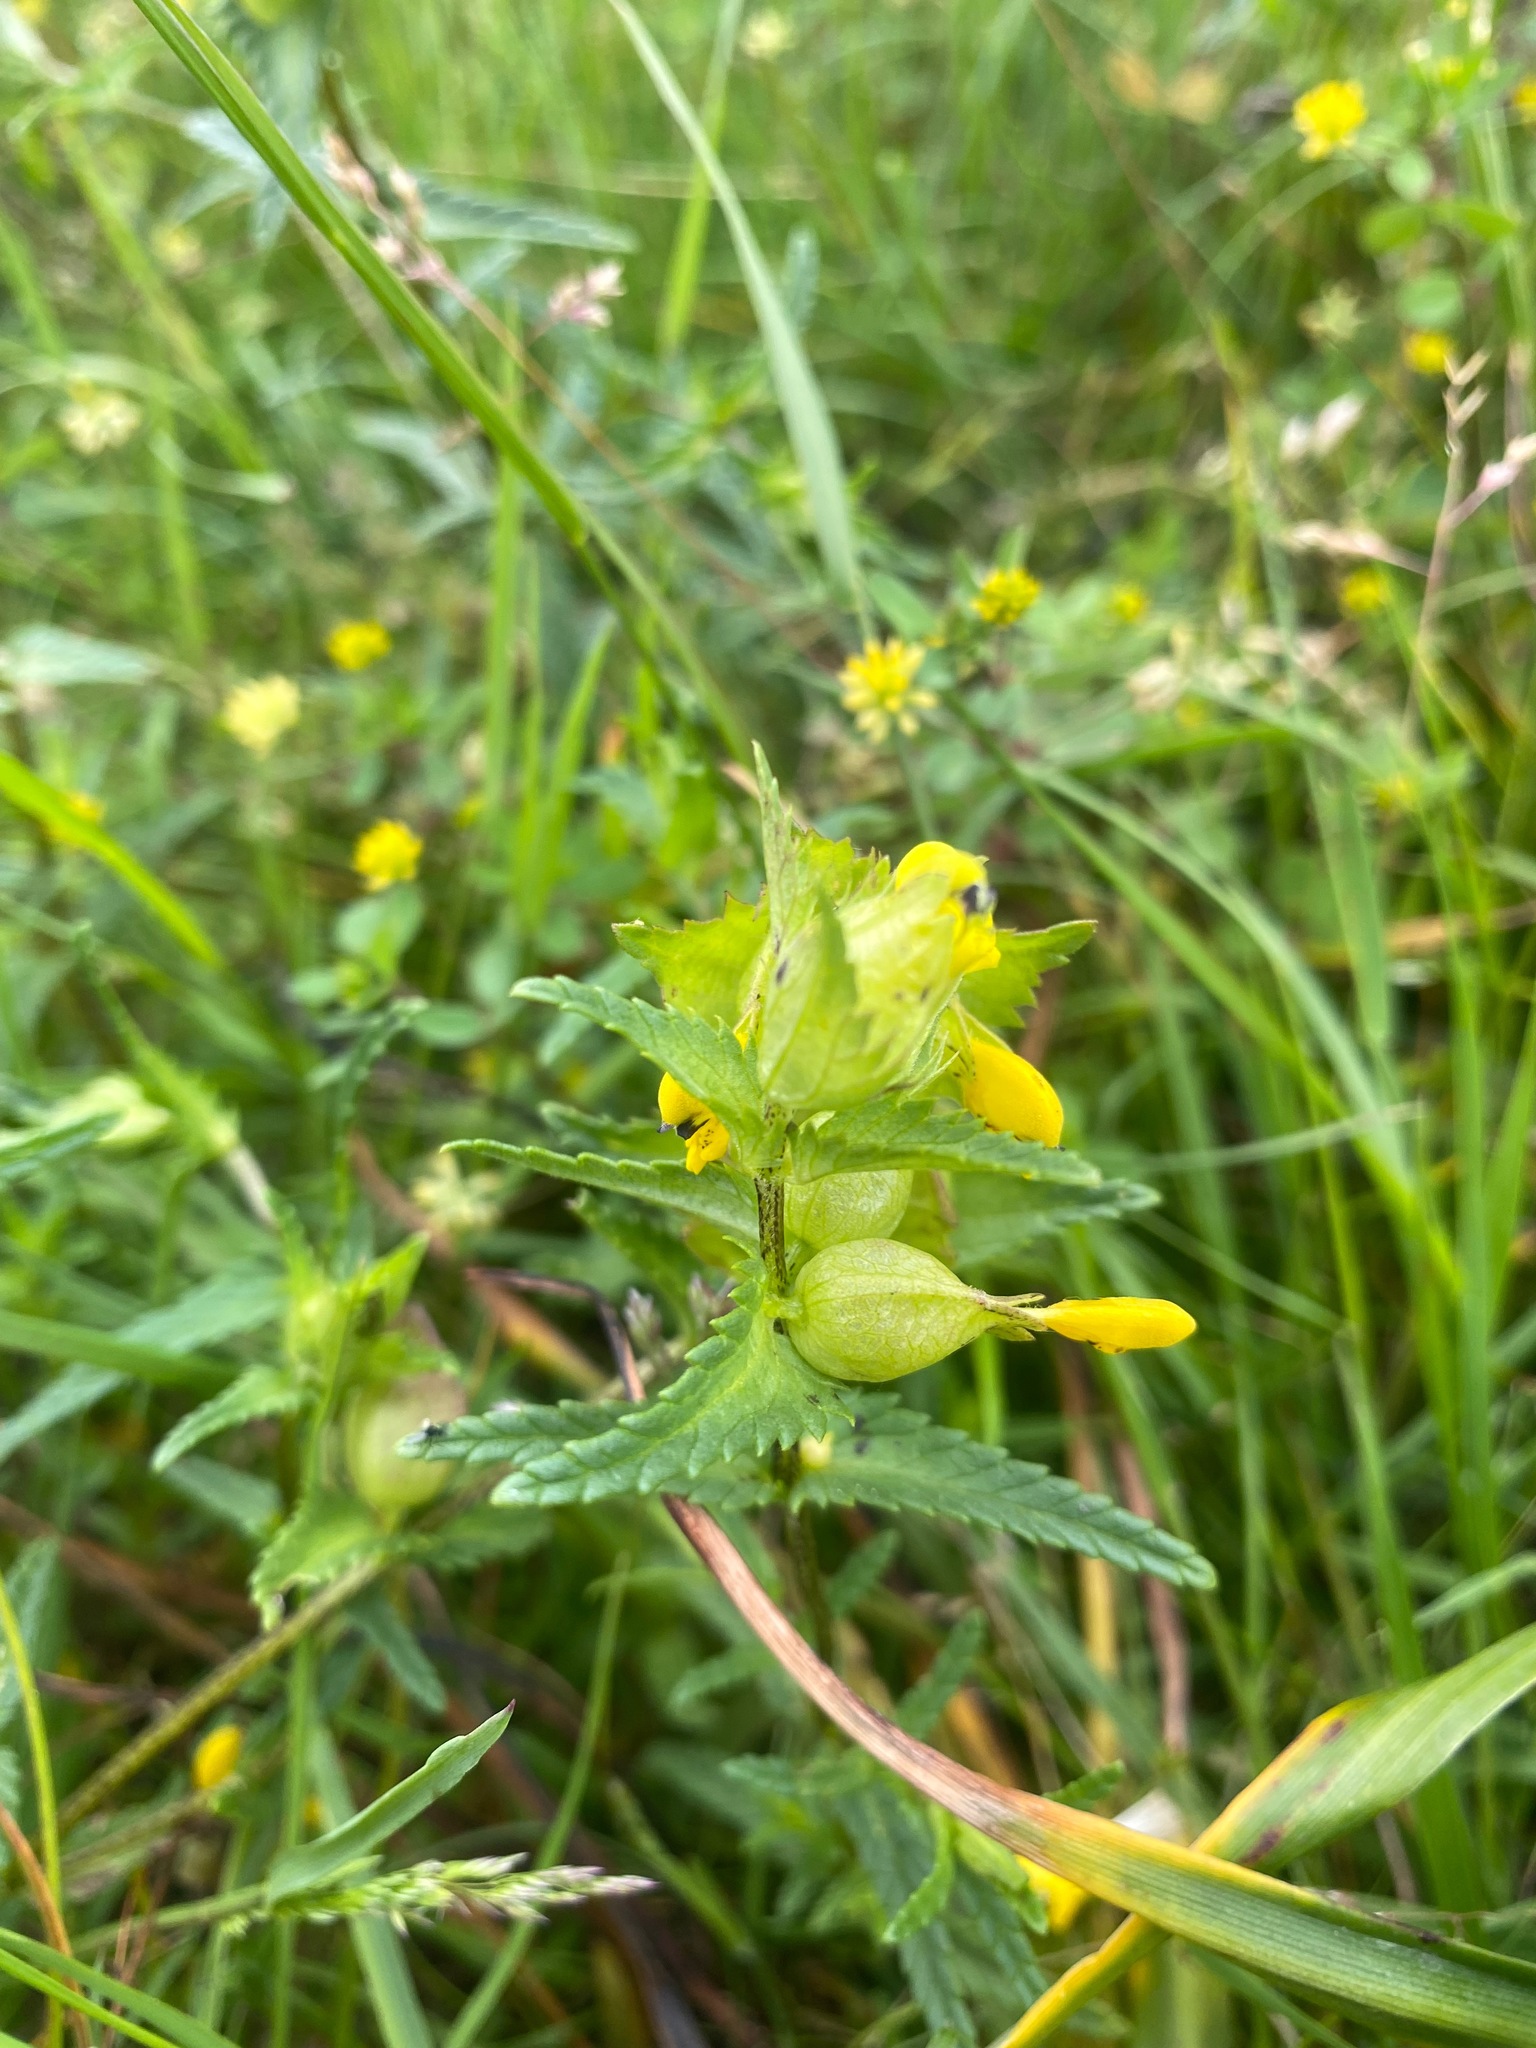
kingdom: Plantae
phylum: Tracheophyta
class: Magnoliopsida
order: Lamiales
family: Orobanchaceae
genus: Rhinanthus
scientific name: Rhinanthus minor
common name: Yellow-rattle
